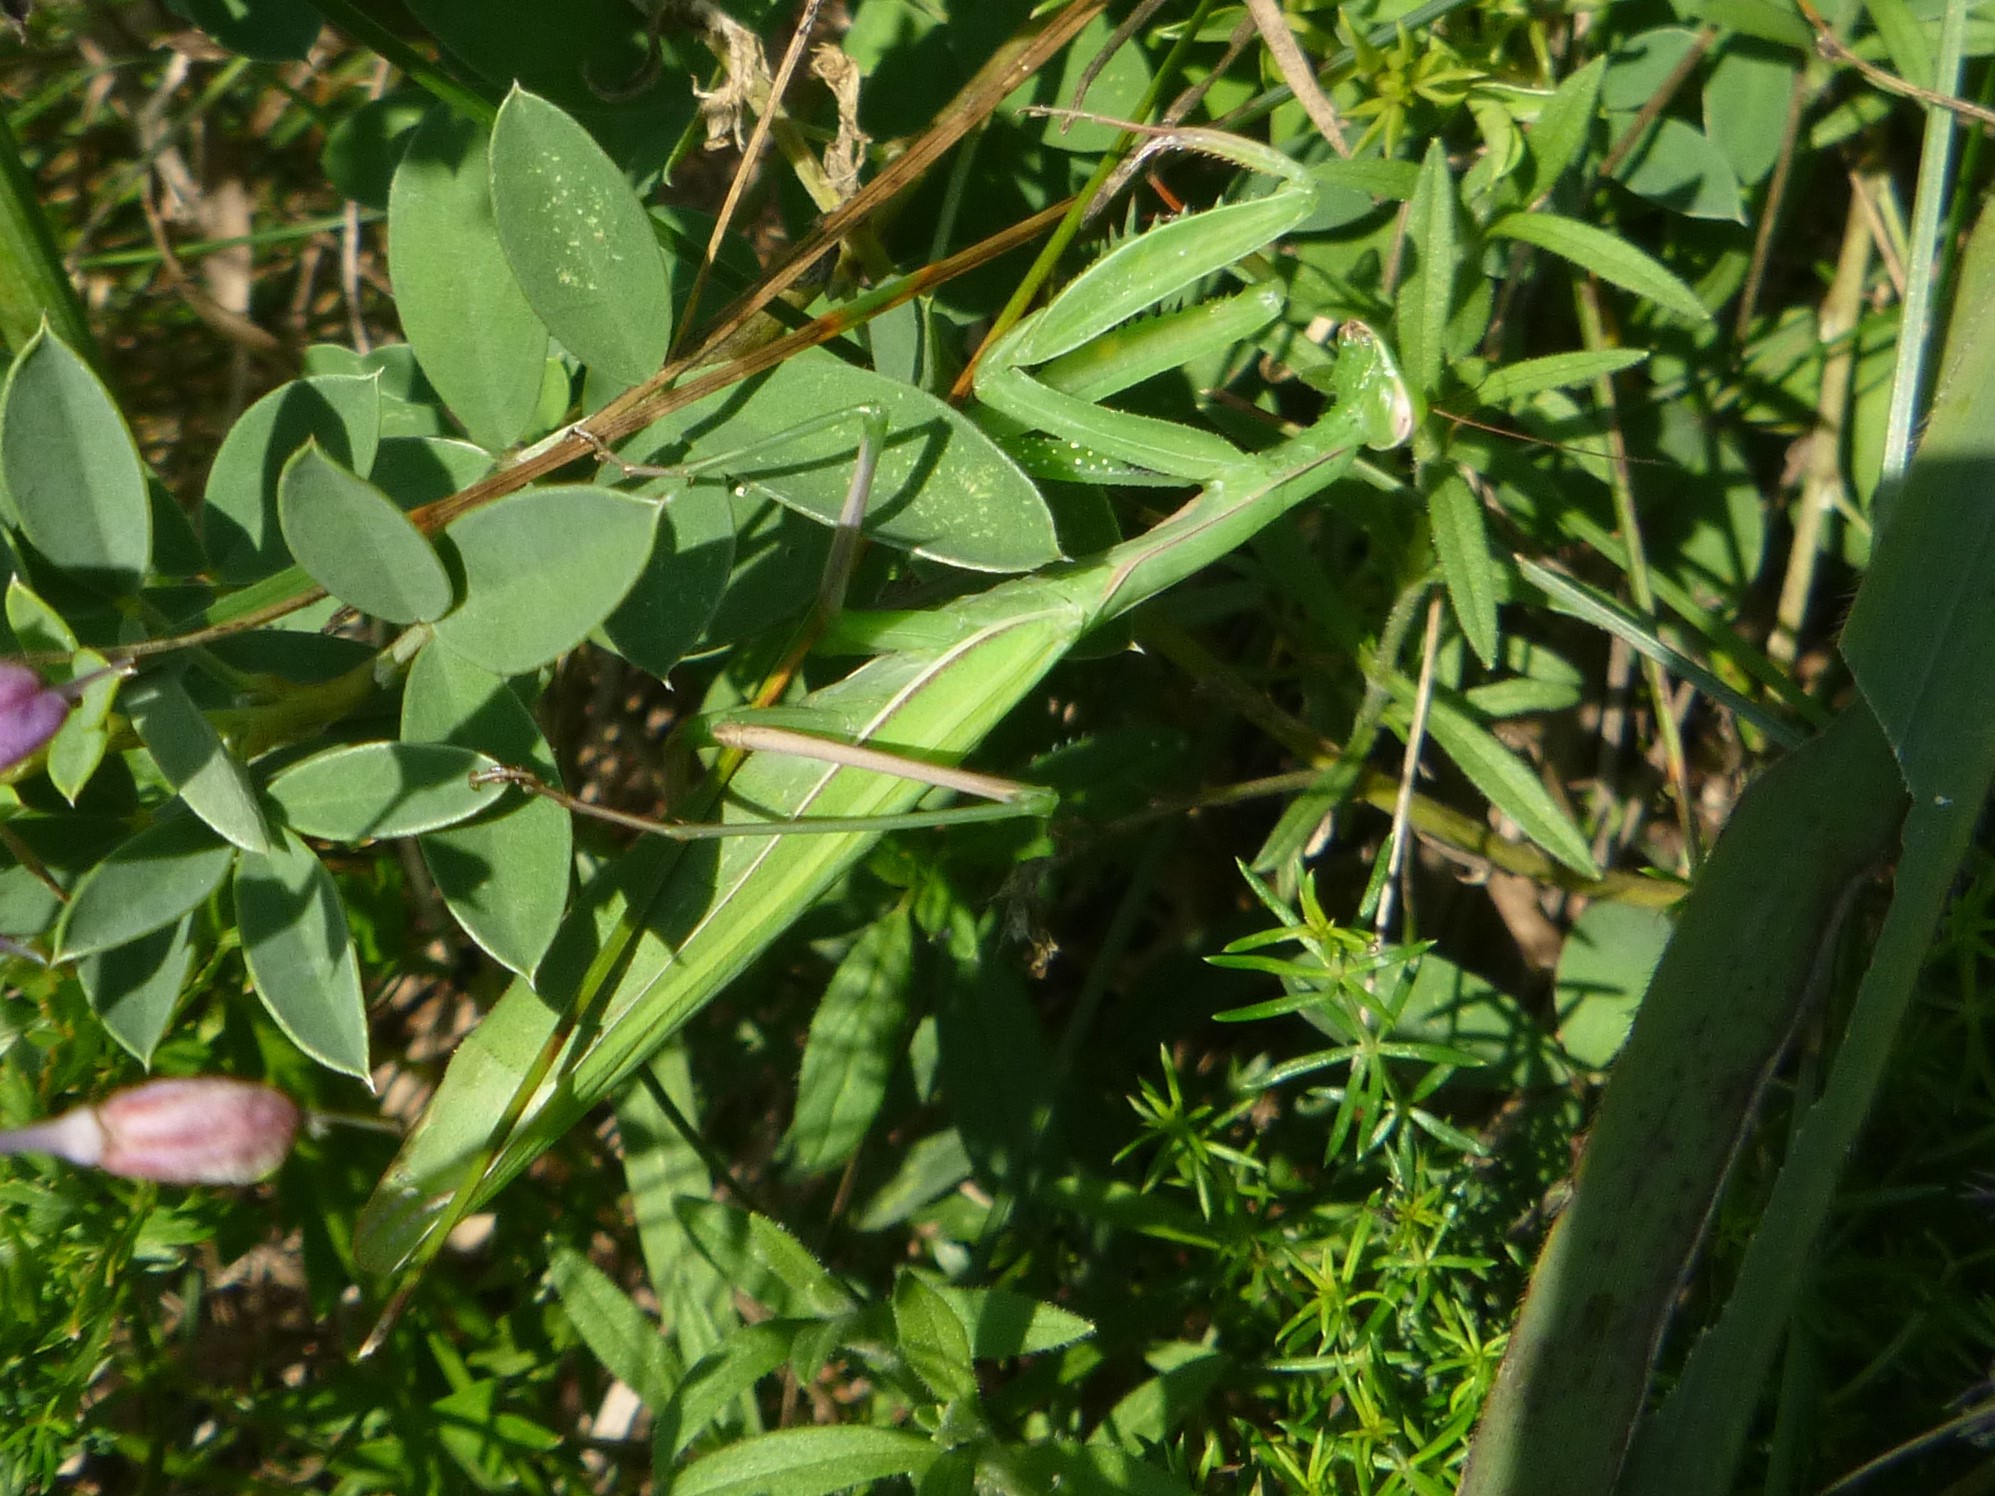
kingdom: Animalia
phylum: Arthropoda
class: Insecta
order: Mantodea
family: Mantidae
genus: Mantis
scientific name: Mantis religiosa
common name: Praying mantis
